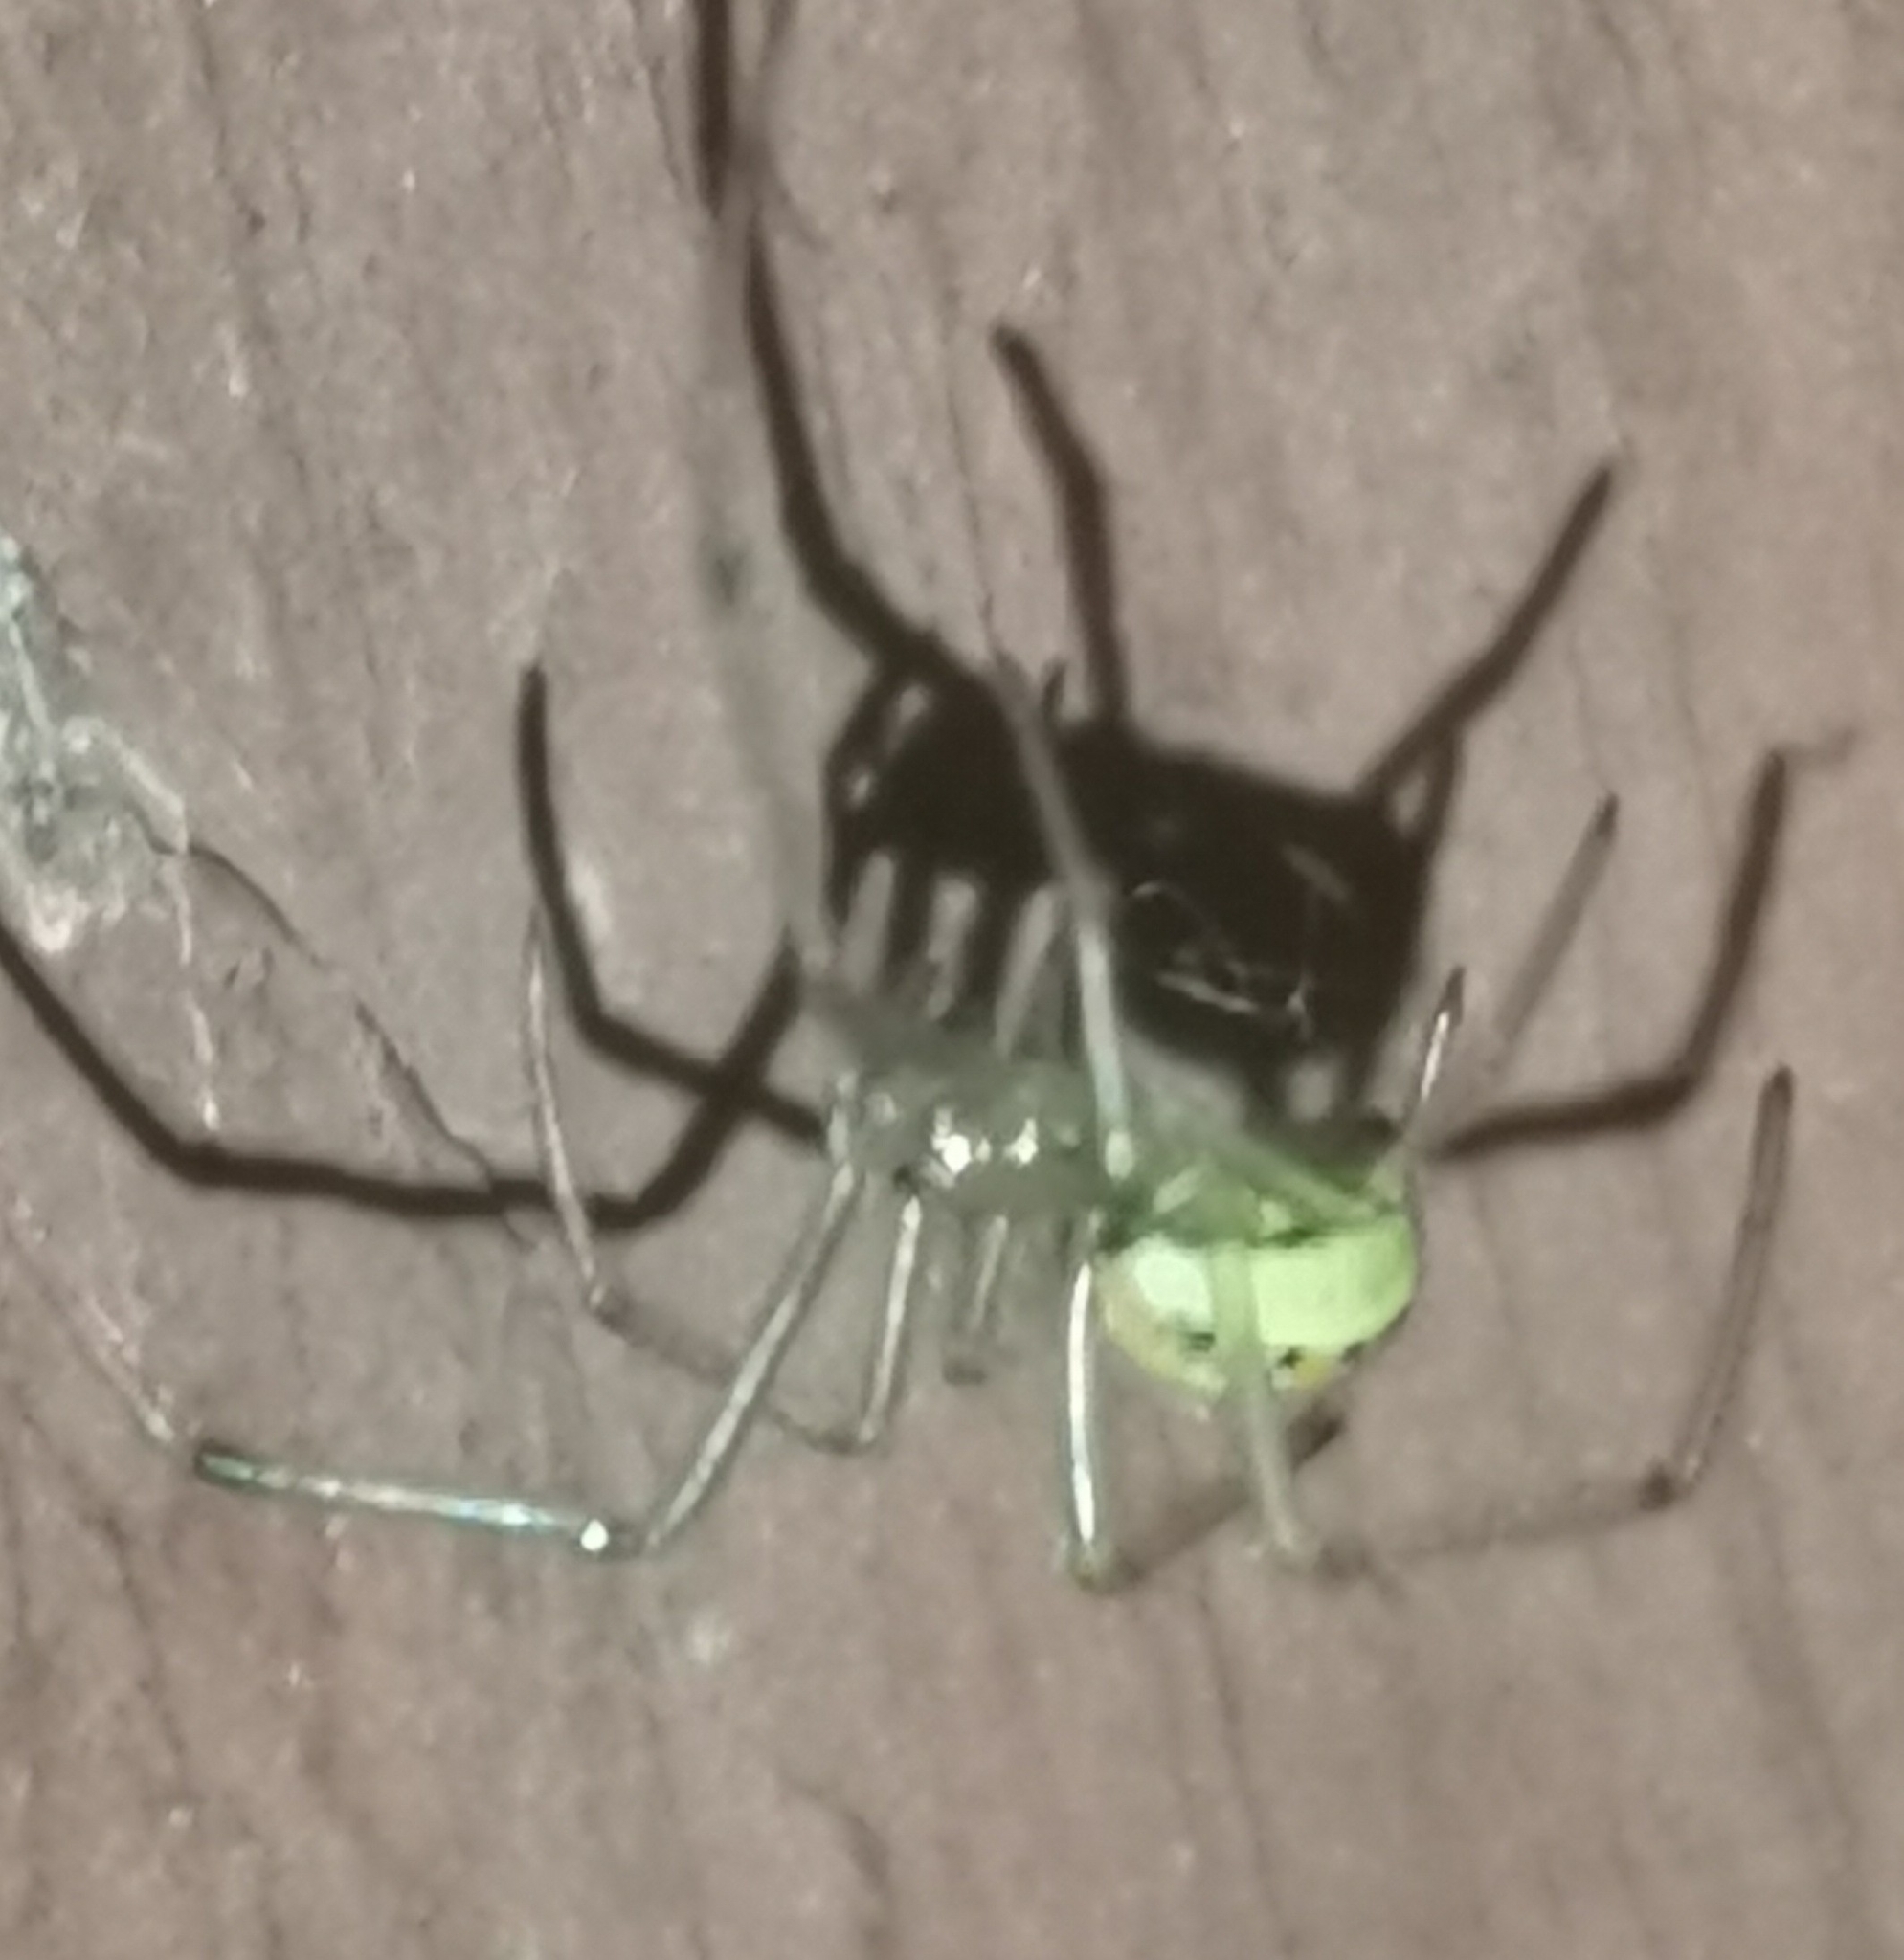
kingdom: Animalia
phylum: Arthropoda
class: Arachnida
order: Araneae
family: Theridiidae
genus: Enoplognatha
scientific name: Enoplognatha ovata
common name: Common candy-striped spider
